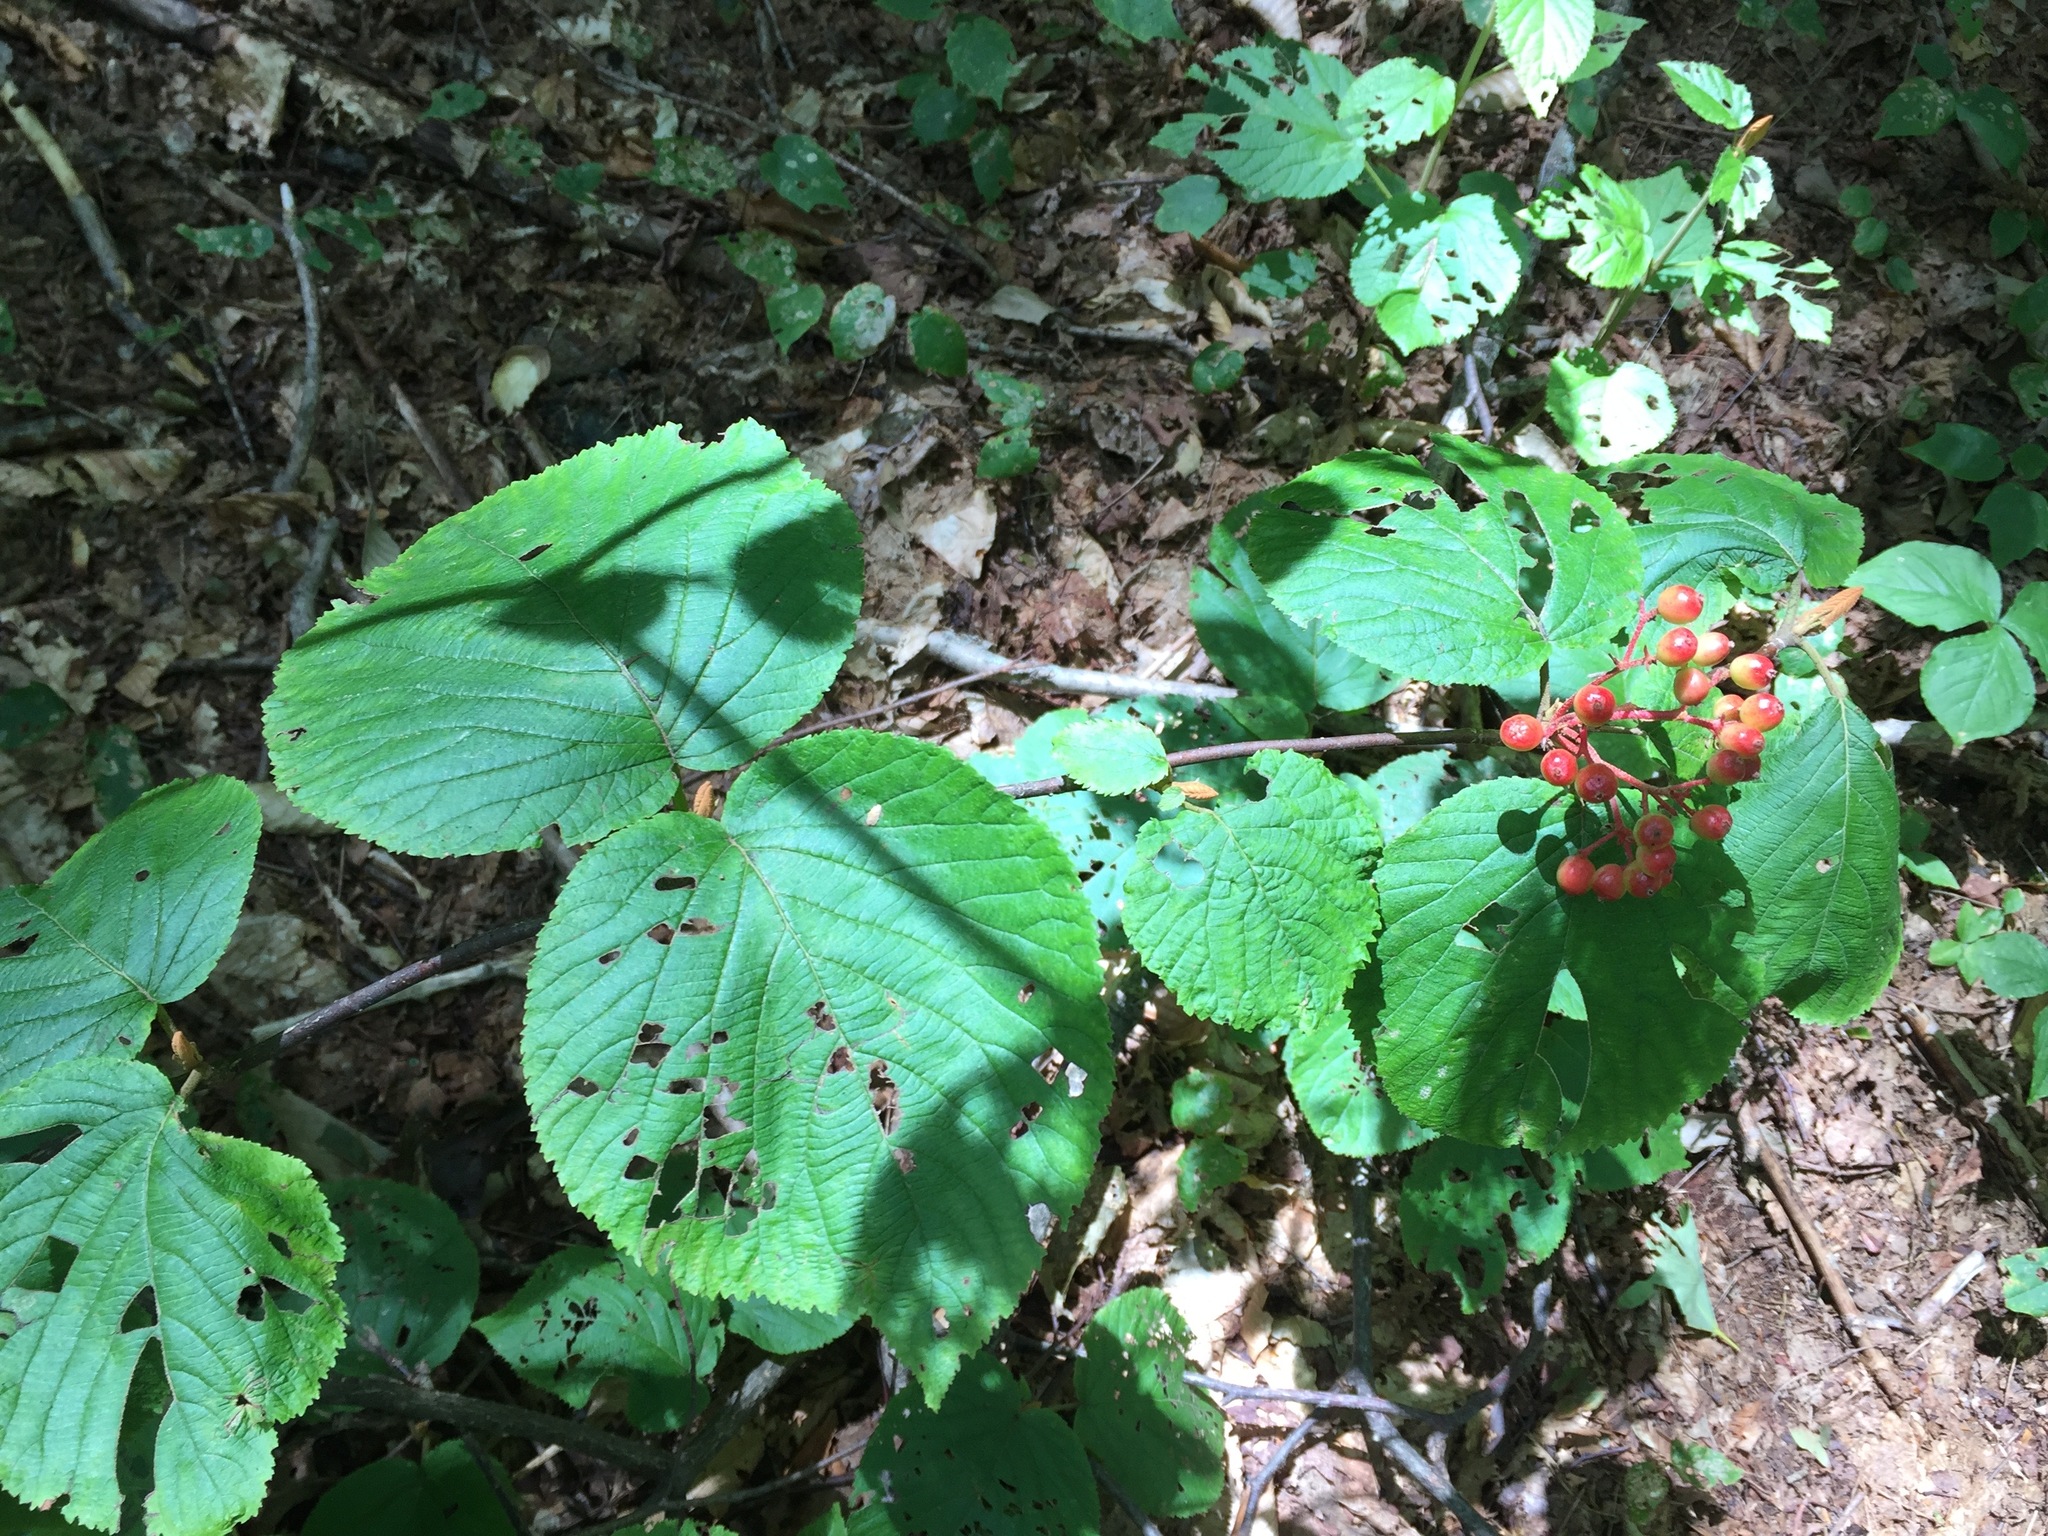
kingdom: Plantae
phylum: Tracheophyta
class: Magnoliopsida
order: Dipsacales
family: Viburnaceae
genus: Viburnum
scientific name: Viburnum lantanoides
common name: Hobblebush
